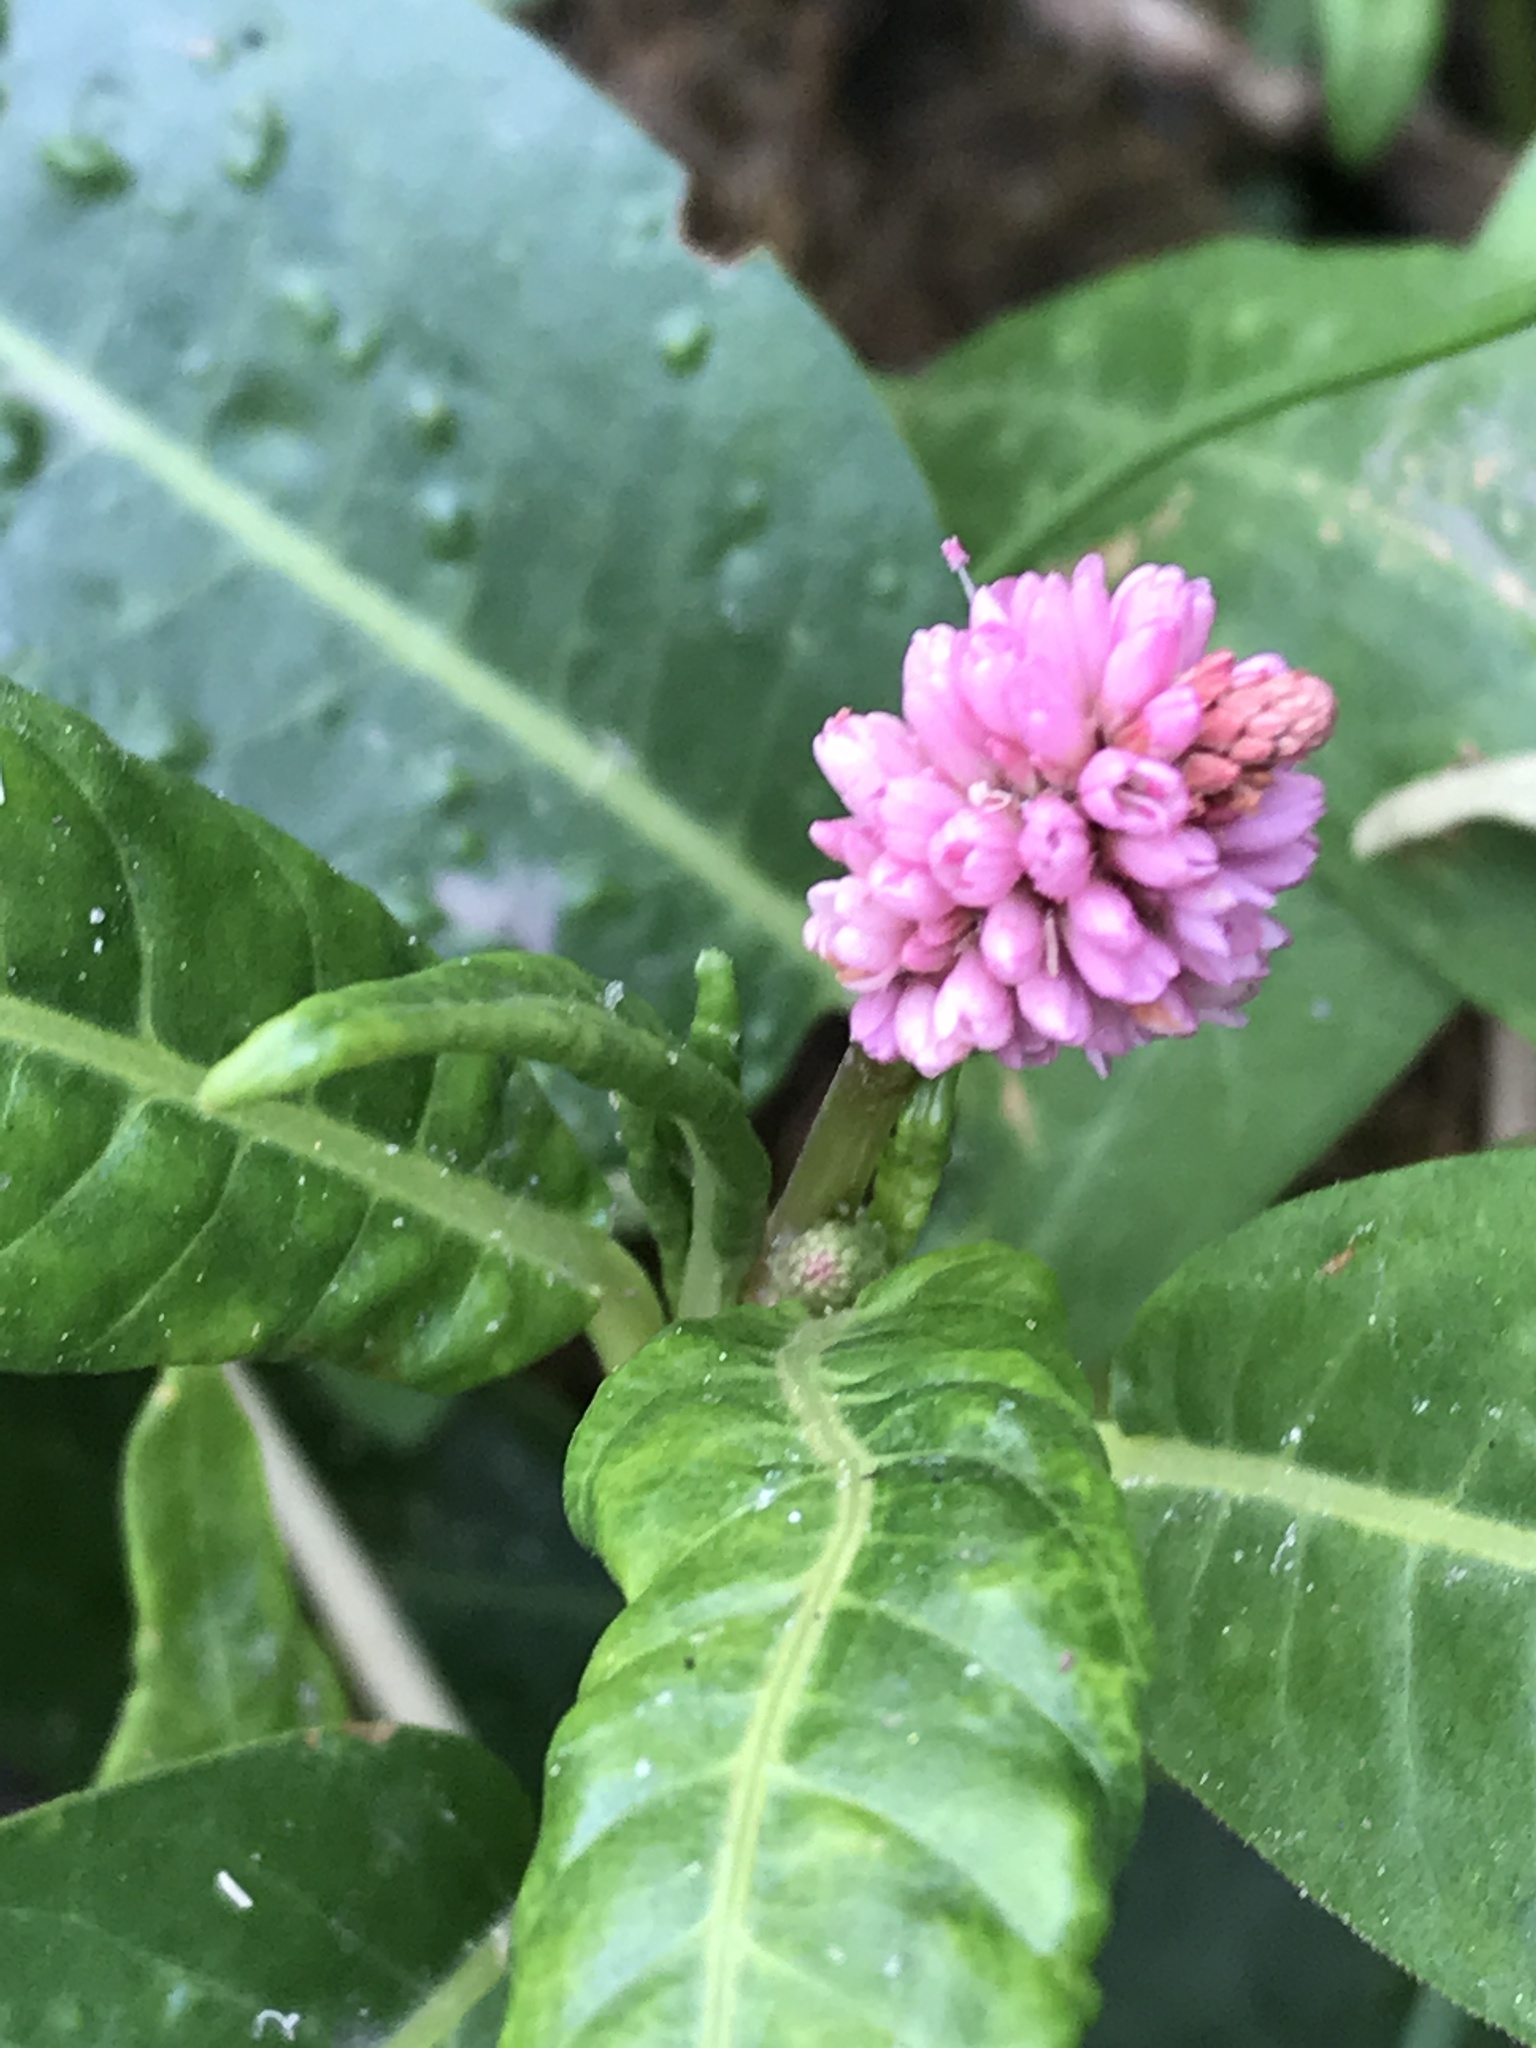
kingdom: Plantae
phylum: Tracheophyta
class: Magnoliopsida
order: Caryophyllales
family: Polygonaceae
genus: Persicaria
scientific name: Persicaria amphibia
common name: Amphibious bistort
